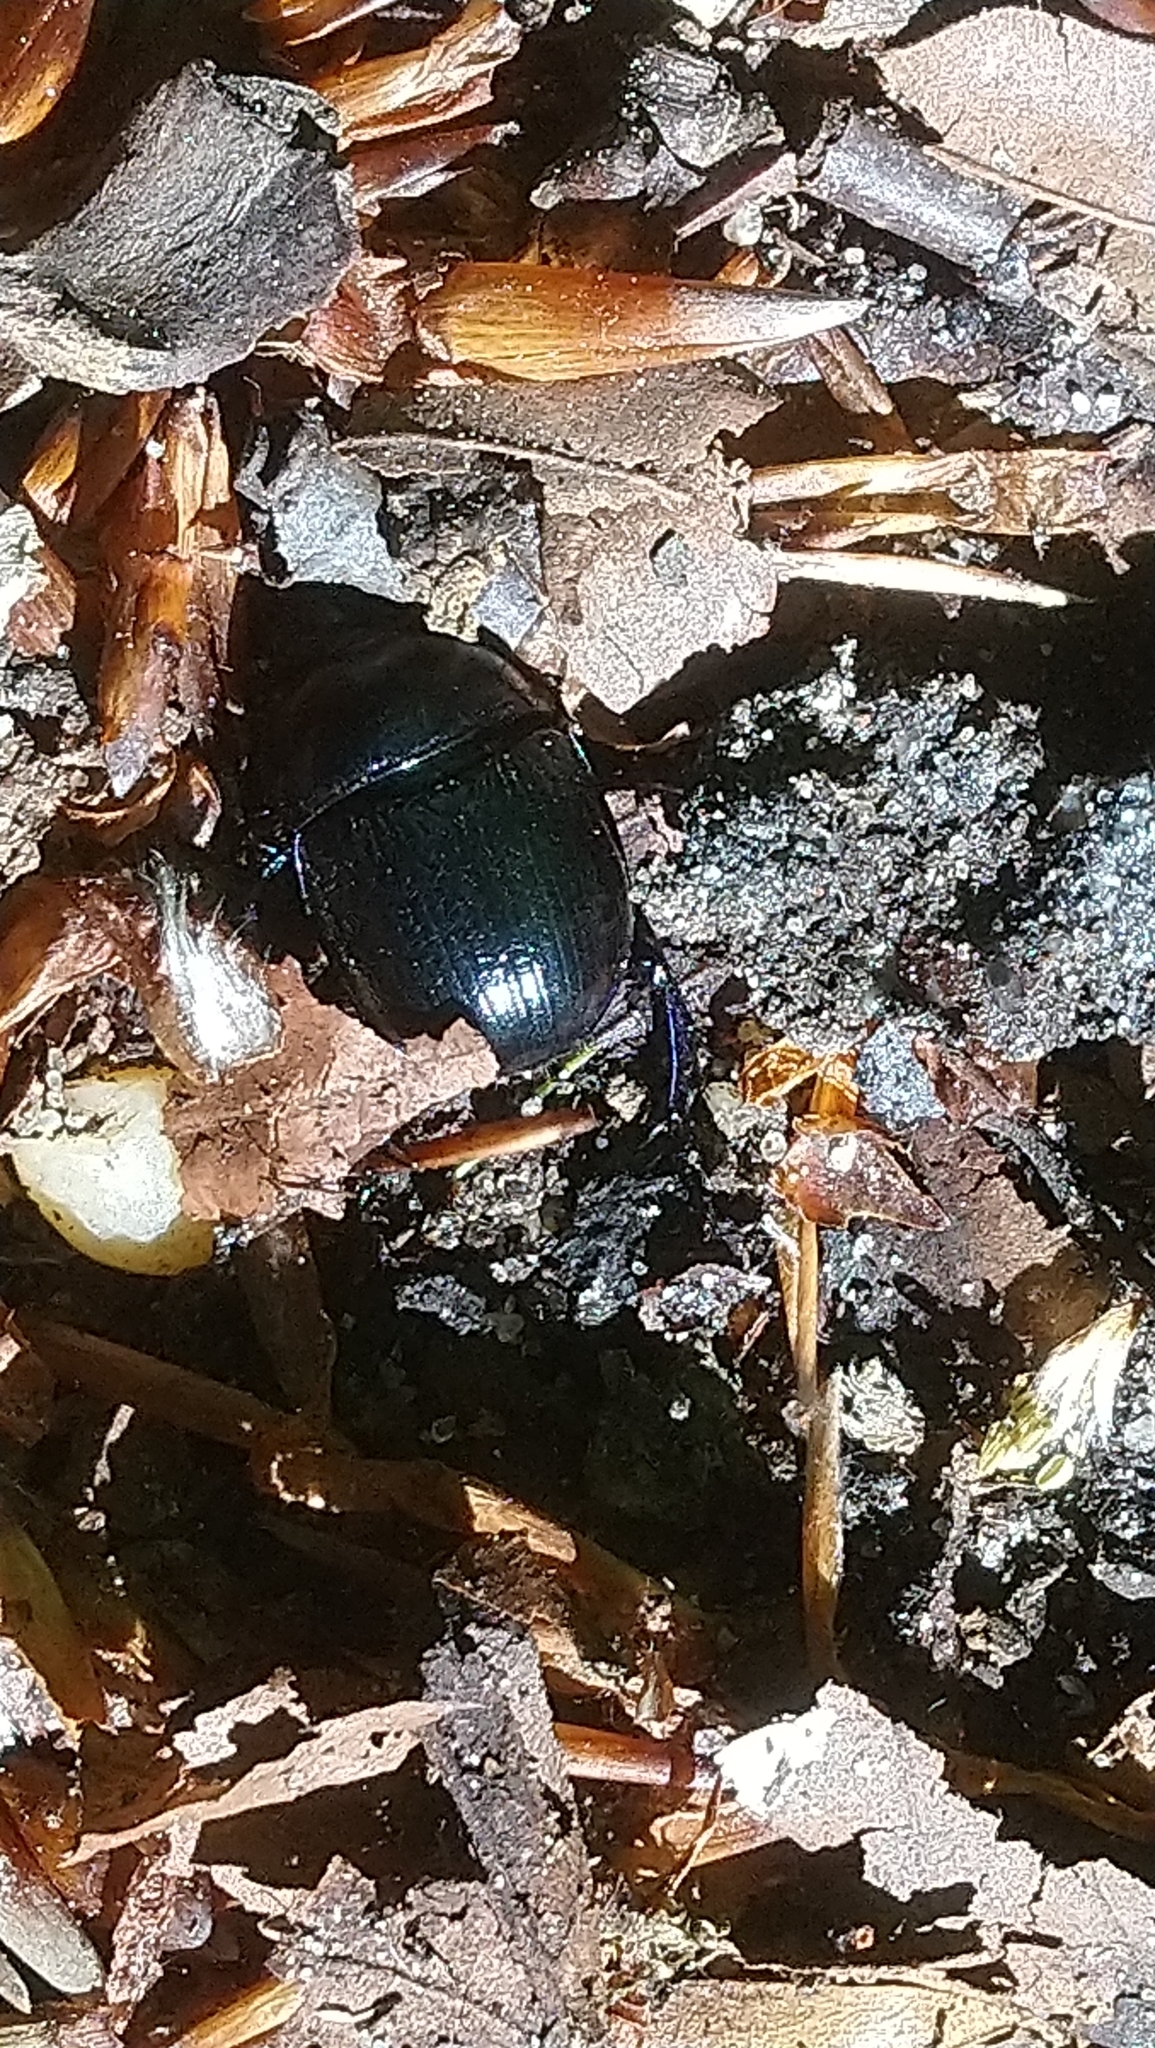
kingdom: Animalia
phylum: Arthropoda
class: Insecta
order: Coleoptera
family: Geotrupidae
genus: Anoplotrupes
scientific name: Anoplotrupes stercorosus
